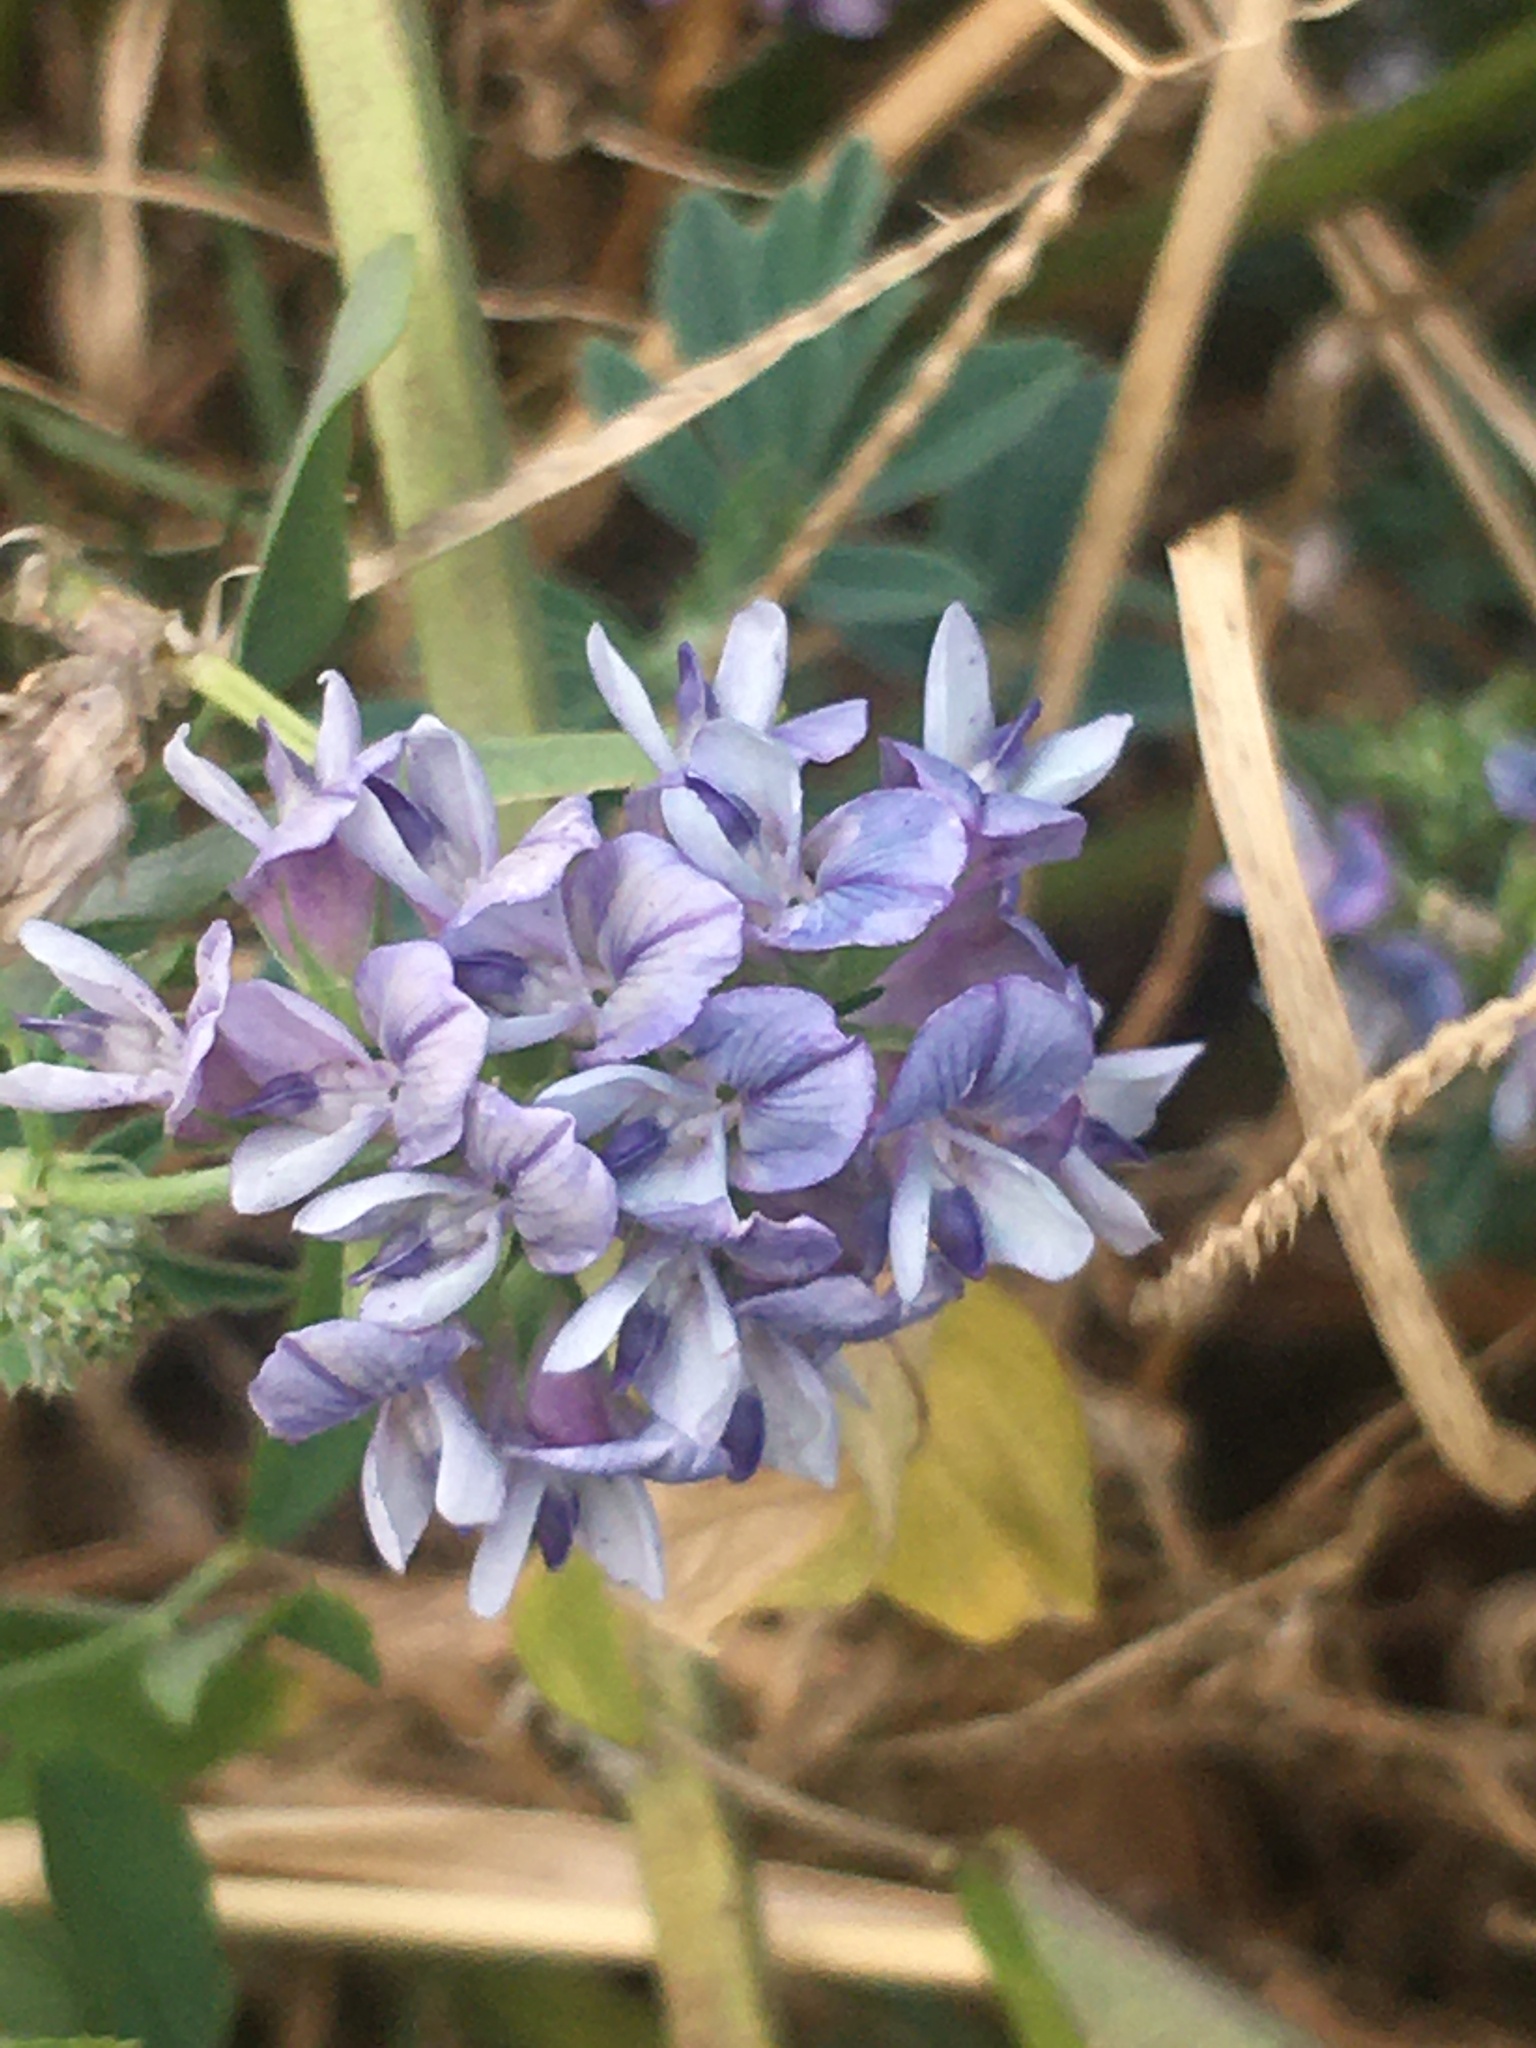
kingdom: Plantae
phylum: Tracheophyta
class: Magnoliopsida
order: Fabales
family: Fabaceae
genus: Medicago
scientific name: Medicago sativa
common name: Alfalfa
